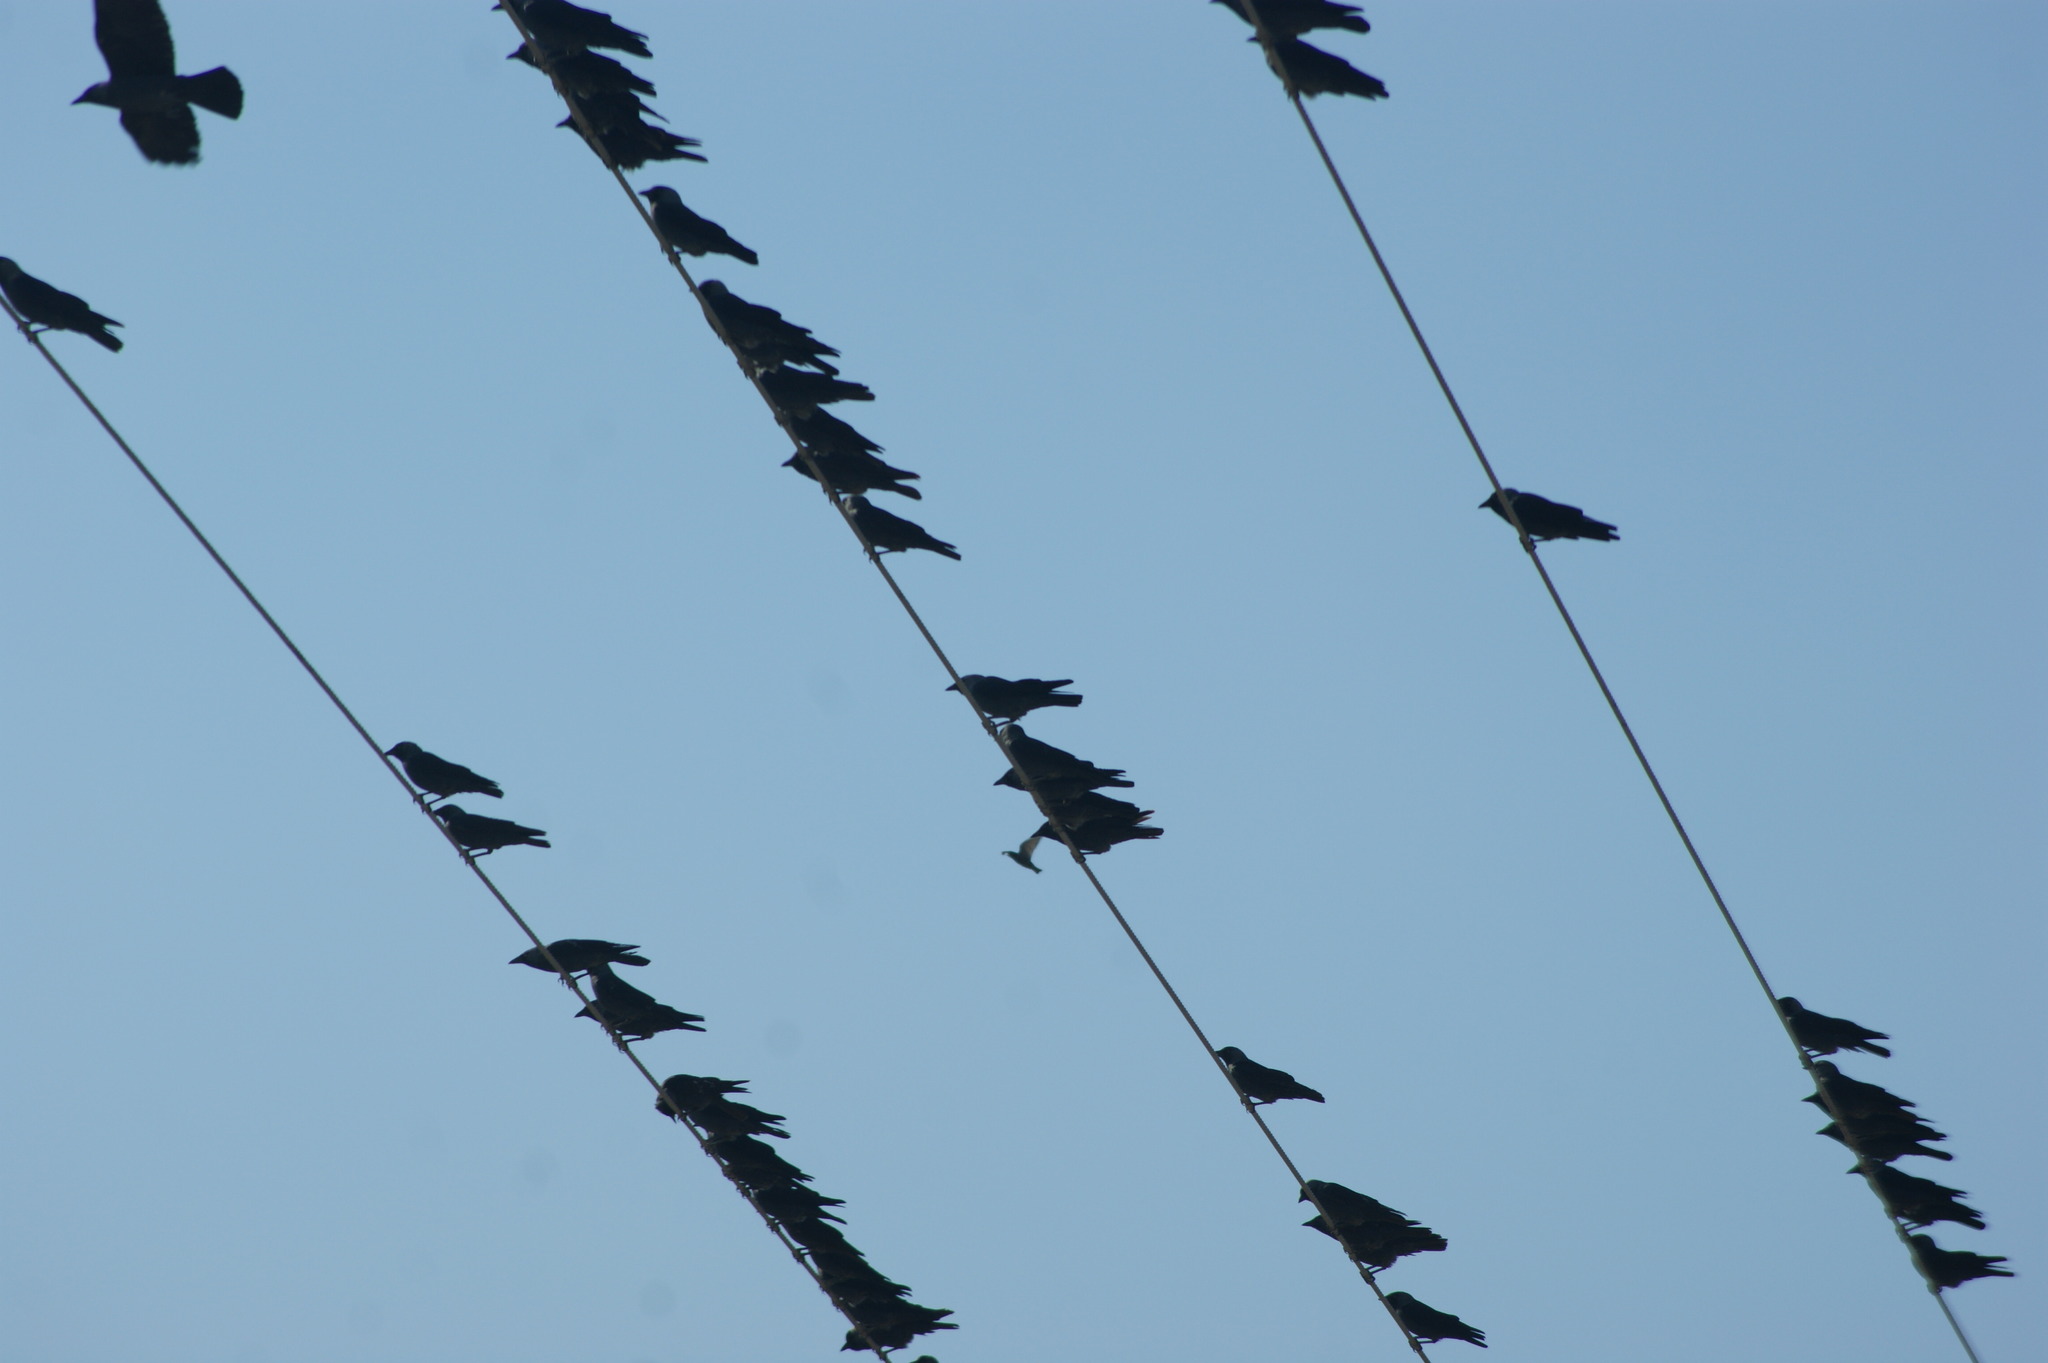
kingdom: Animalia
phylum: Chordata
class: Aves
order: Passeriformes
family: Corvidae
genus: Coloeus
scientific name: Coloeus monedula
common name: Western jackdaw
